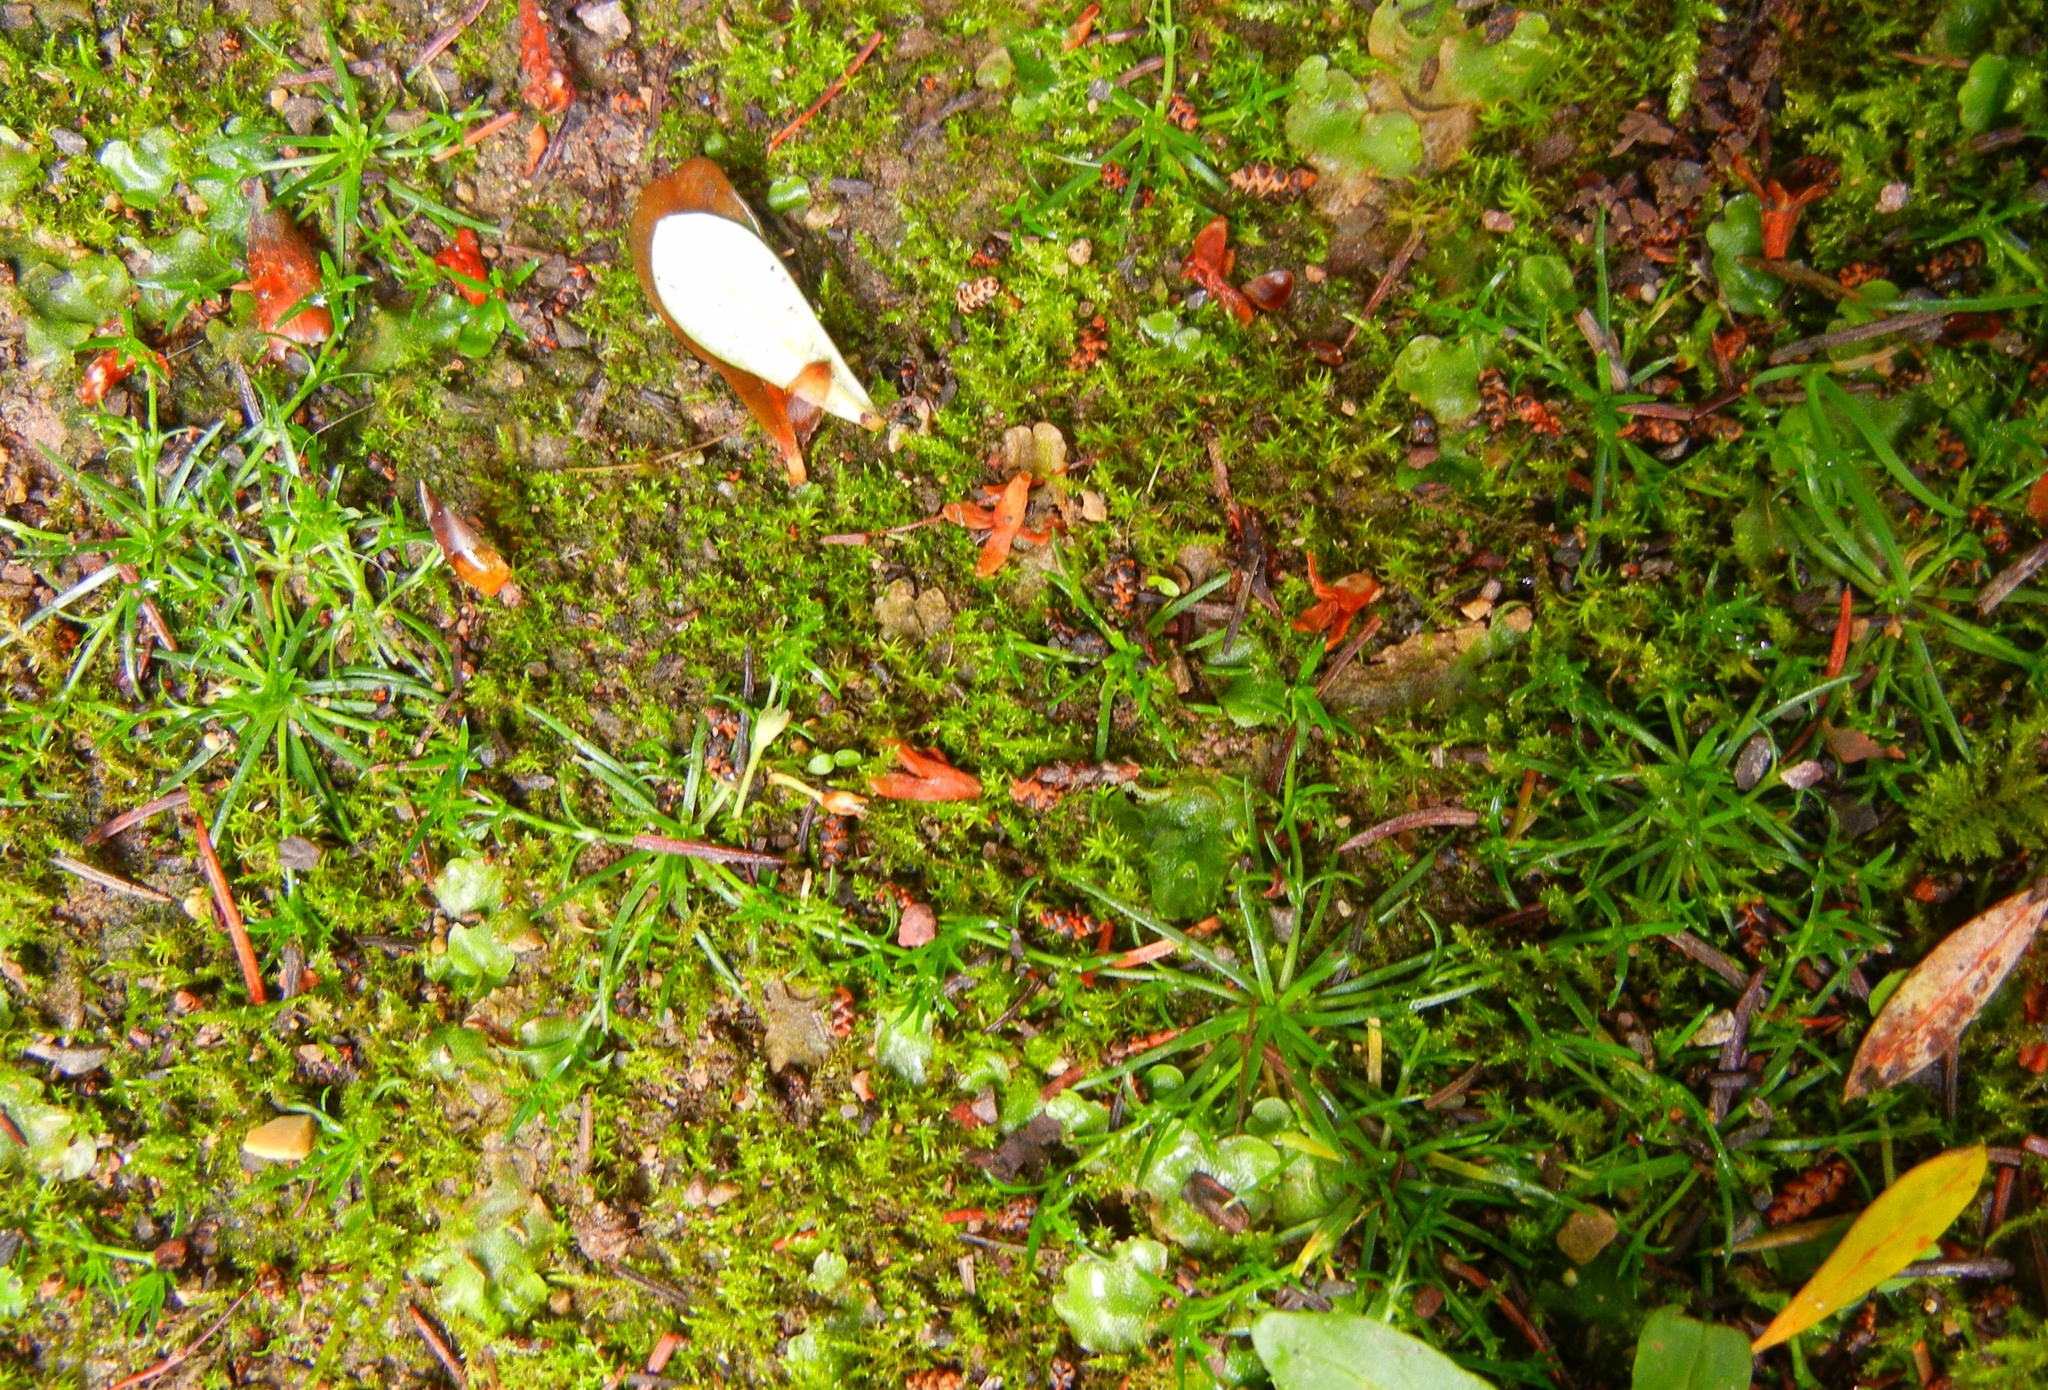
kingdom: Plantae
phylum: Tracheophyta
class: Magnoliopsida
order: Caryophyllales
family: Caryophyllaceae
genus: Sagina
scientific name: Sagina procumbens
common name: Procumbent pearlwort
